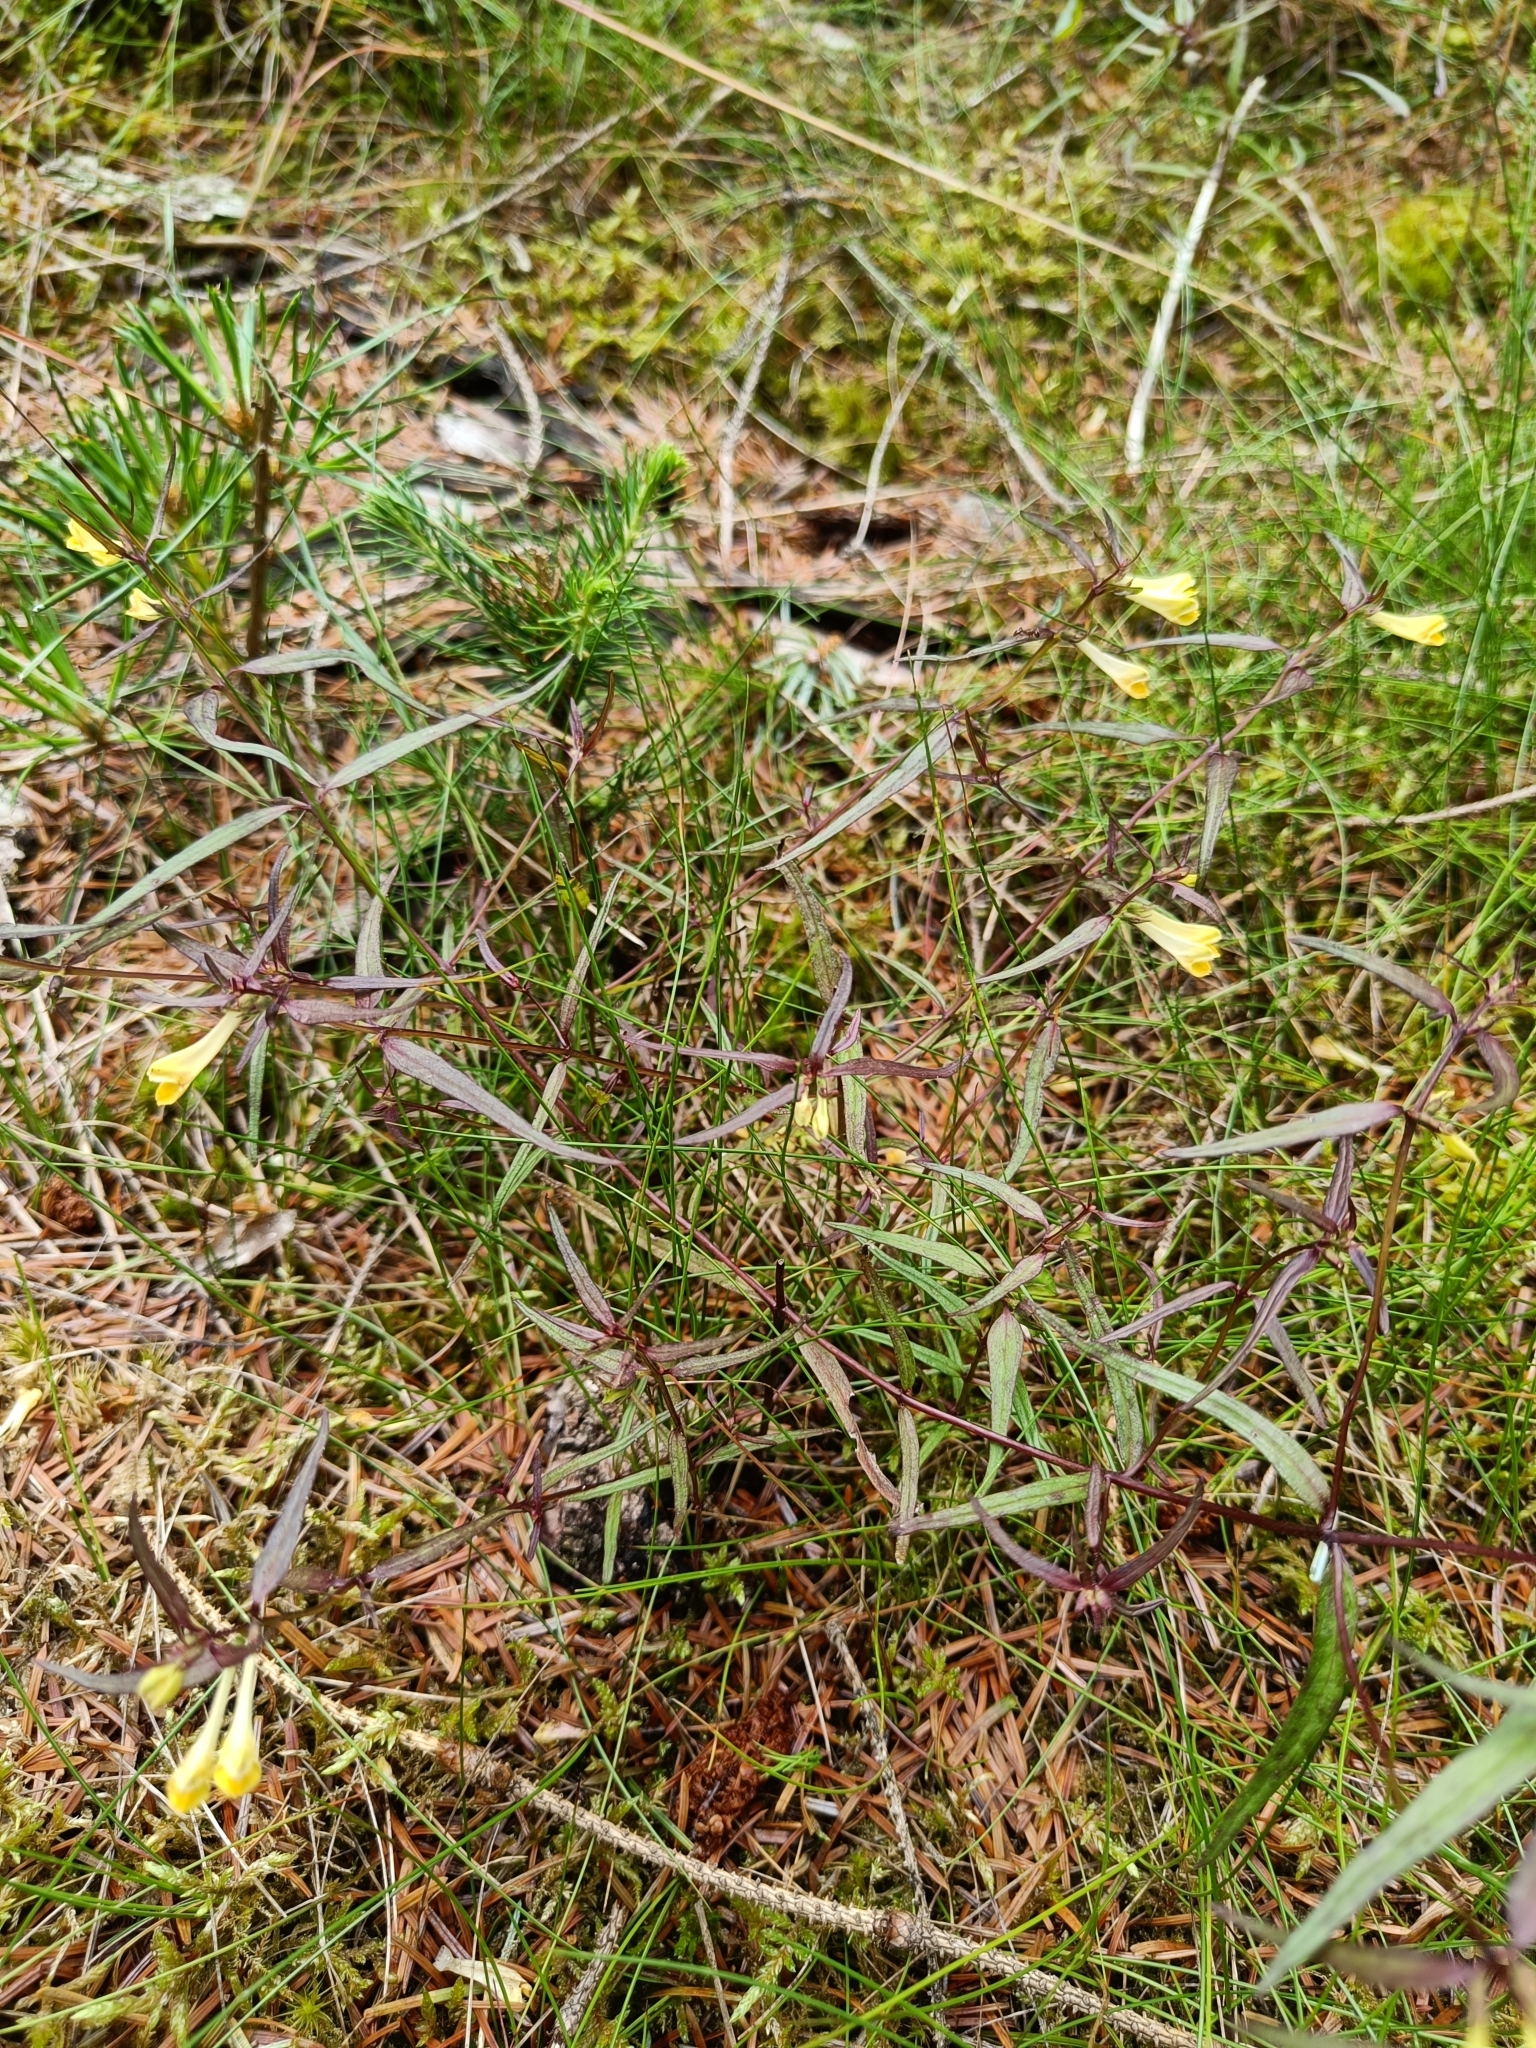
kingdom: Plantae
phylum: Tracheophyta
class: Magnoliopsida
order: Lamiales
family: Orobanchaceae
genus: Melampyrum
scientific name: Melampyrum pratense
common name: Common cow-wheat
